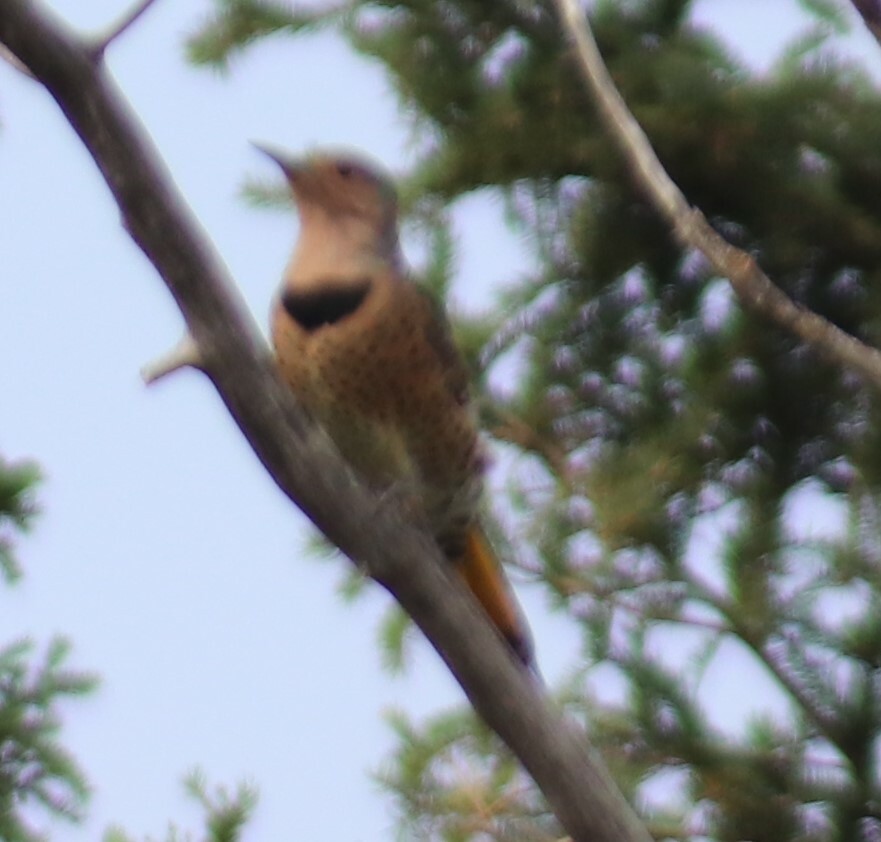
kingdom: Animalia
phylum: Chordata
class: Aves
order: Piciformes
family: Picidae
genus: Colaptes
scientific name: Colaptes auratus
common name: Northern flicker
